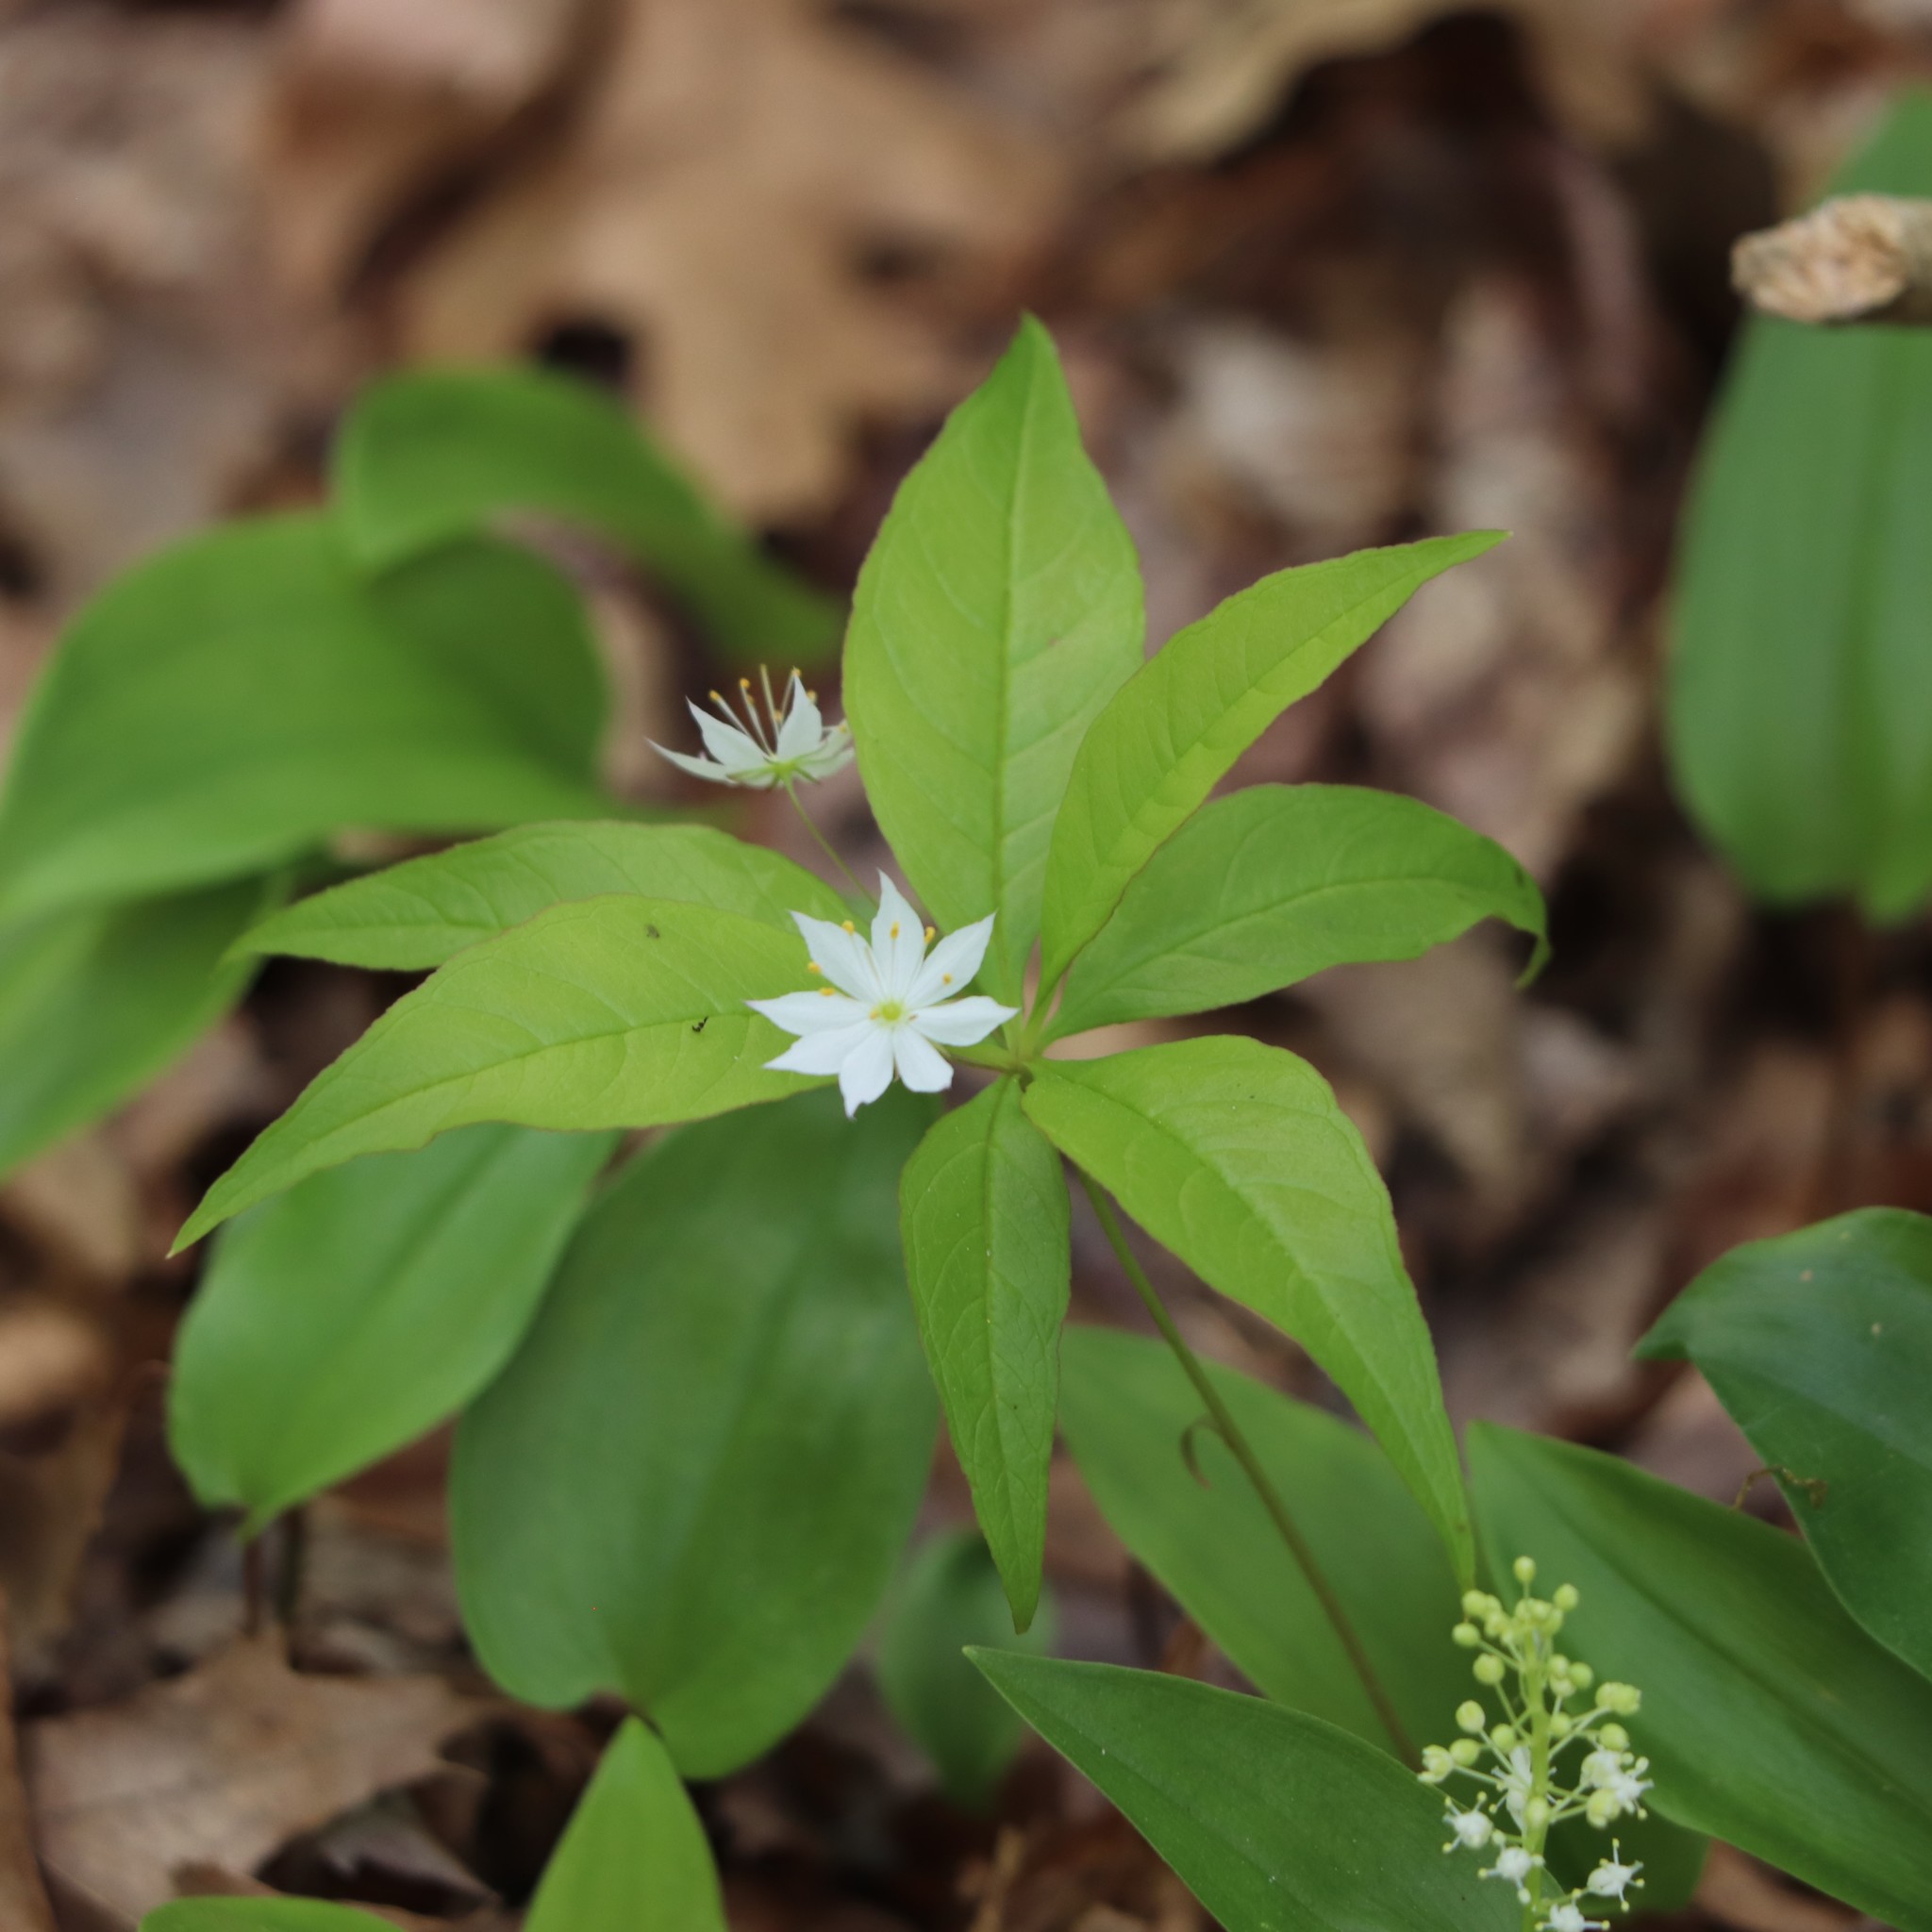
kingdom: Plantae
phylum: Tracheophyta
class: Magnoliopsida
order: Ericales
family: Primulaceae
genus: Lysimachia
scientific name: Lysimachia borealis
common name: American starflower
